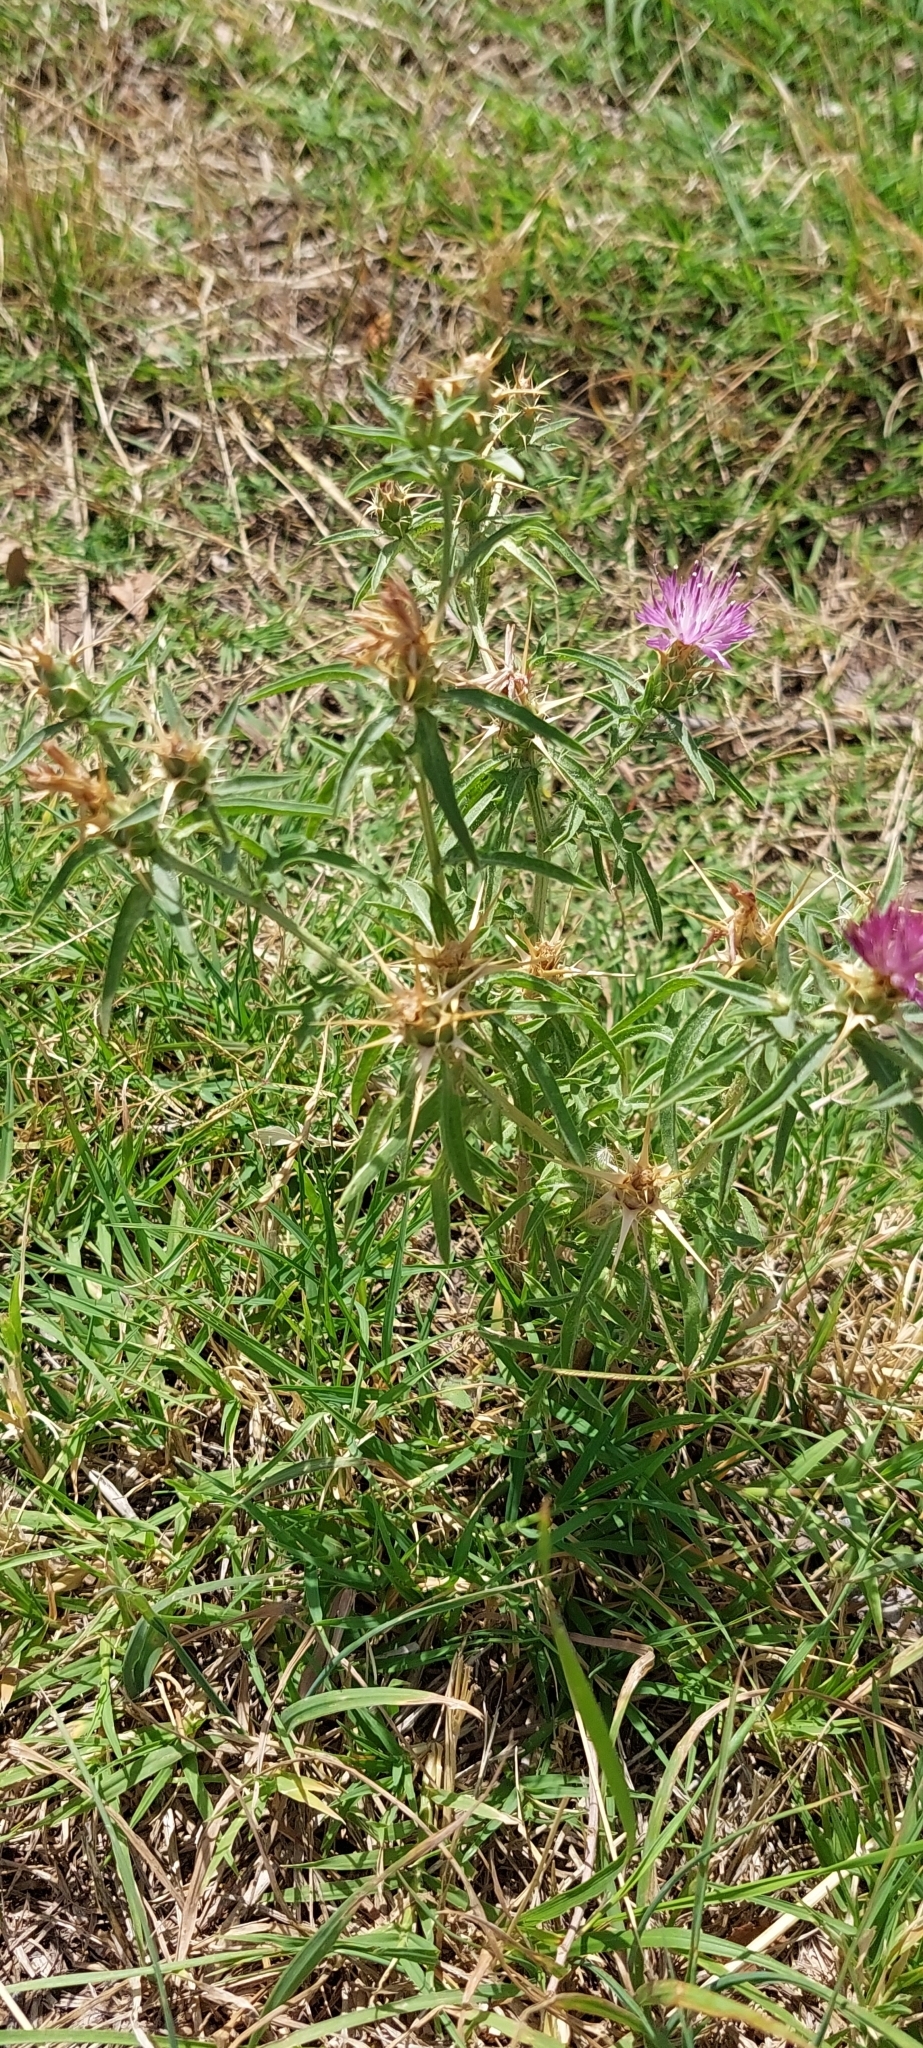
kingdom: Plantae
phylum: Tracheophyta
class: Magnoliopsida
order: Asterales
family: Asteraceae
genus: Centaurea
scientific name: Centaurea calcitrapa
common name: Red star-thistle
